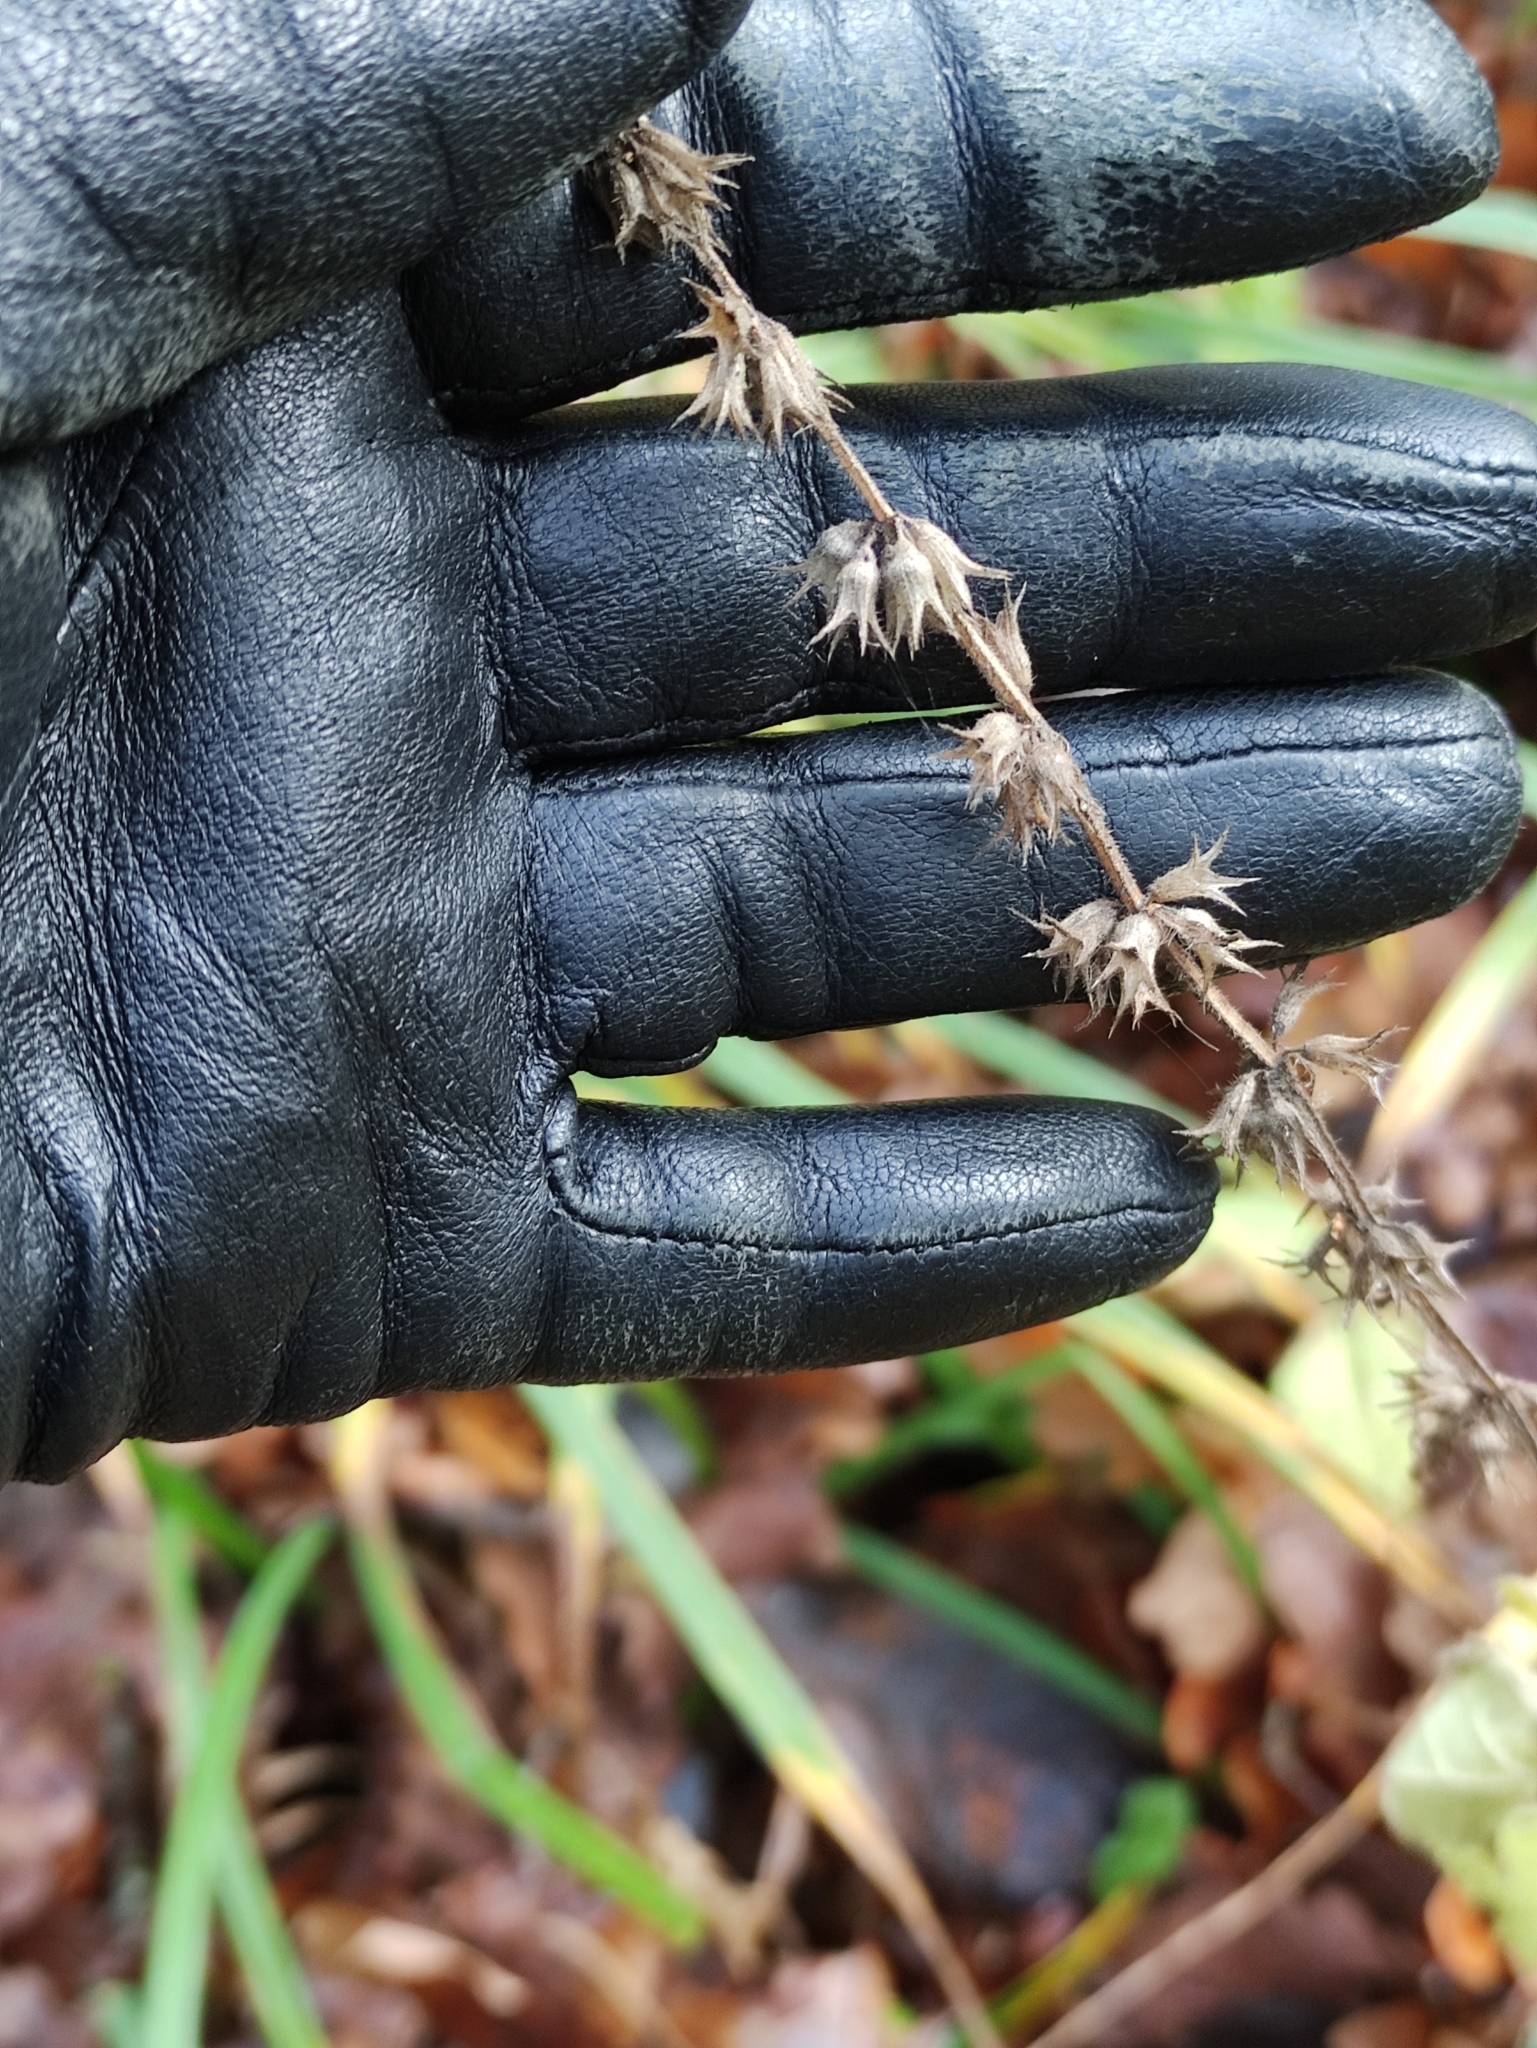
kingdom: Plantae
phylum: Tracheophyta
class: Magnoliopsida
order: Lamiales
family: Lamiaceae
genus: Stachys
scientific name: Stachys sylvatica
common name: Hedge woundwort
